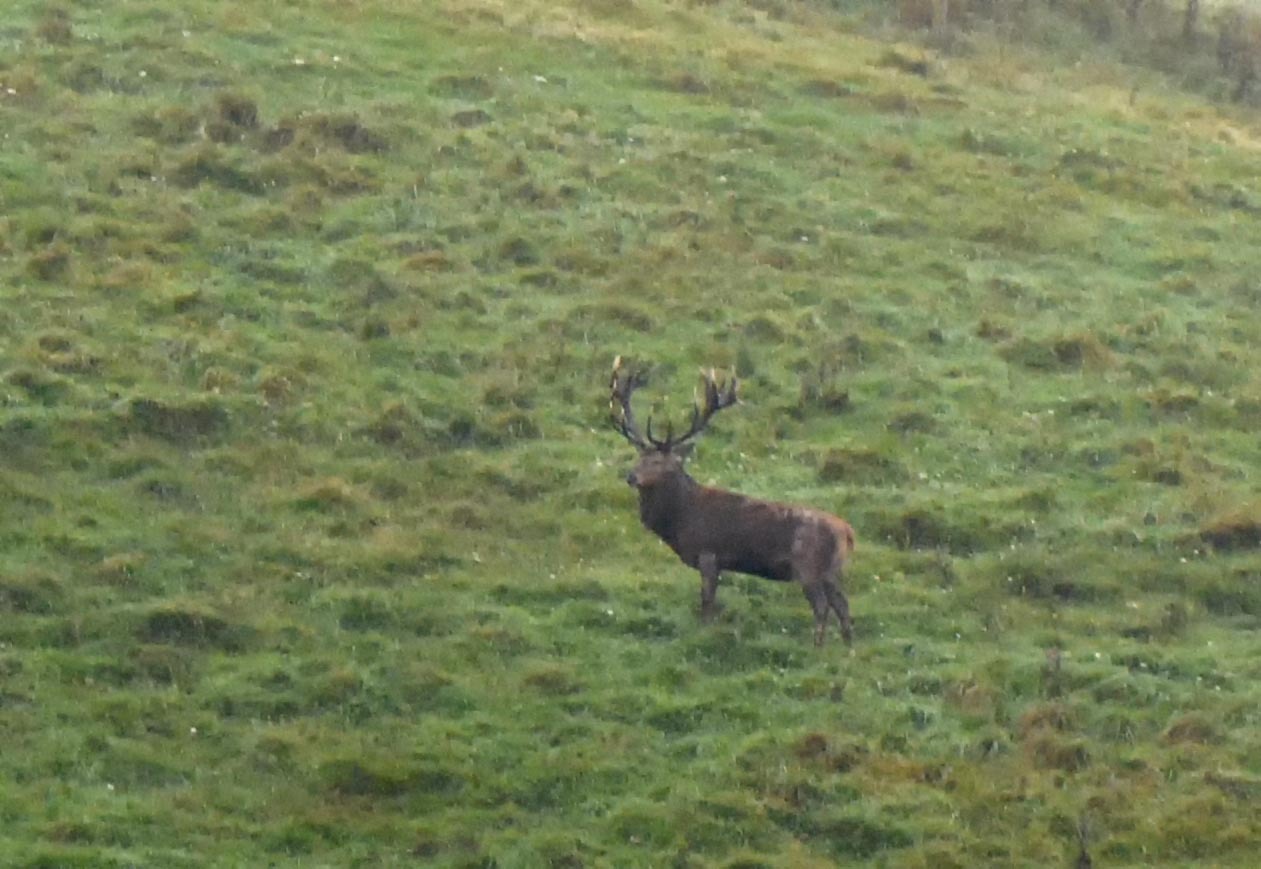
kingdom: Animalia
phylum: Chordata
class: Mammalia
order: Artiodactyla
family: Cervidae
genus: Cervus
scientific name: Cervus elaphus
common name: Red deer
